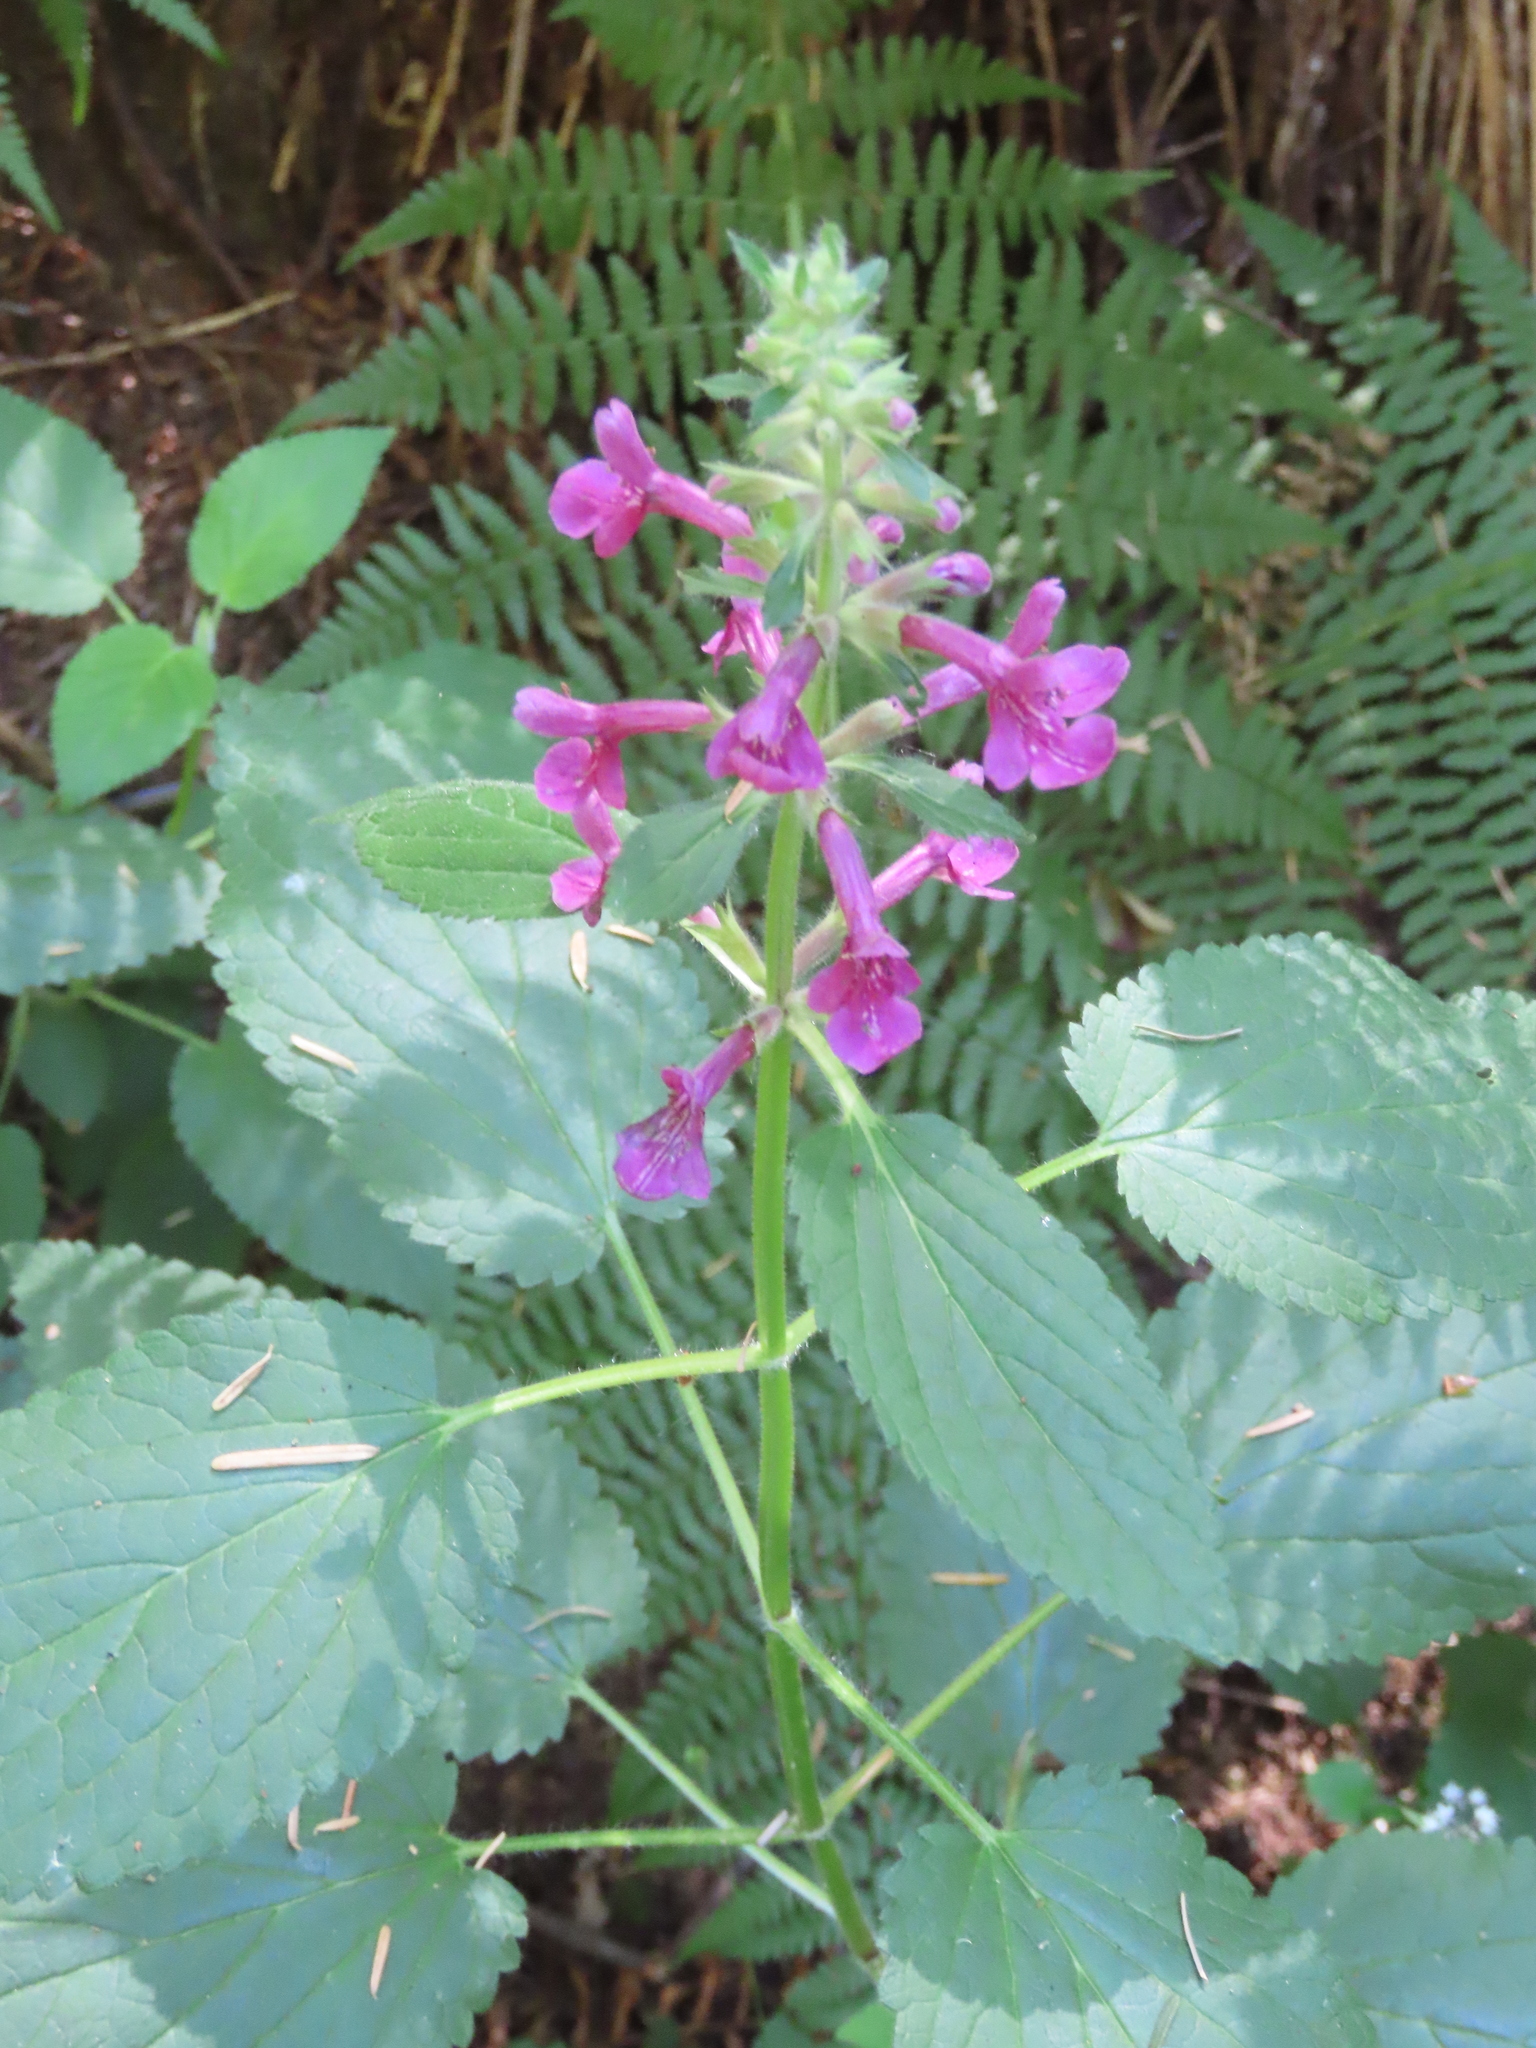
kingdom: Plantae
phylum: Tracheophyta
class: Magnoliopsida
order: Lamiales
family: Lamiaceae
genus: Stachys
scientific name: Stachys chamissonis
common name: Coastal hedge-nettle
